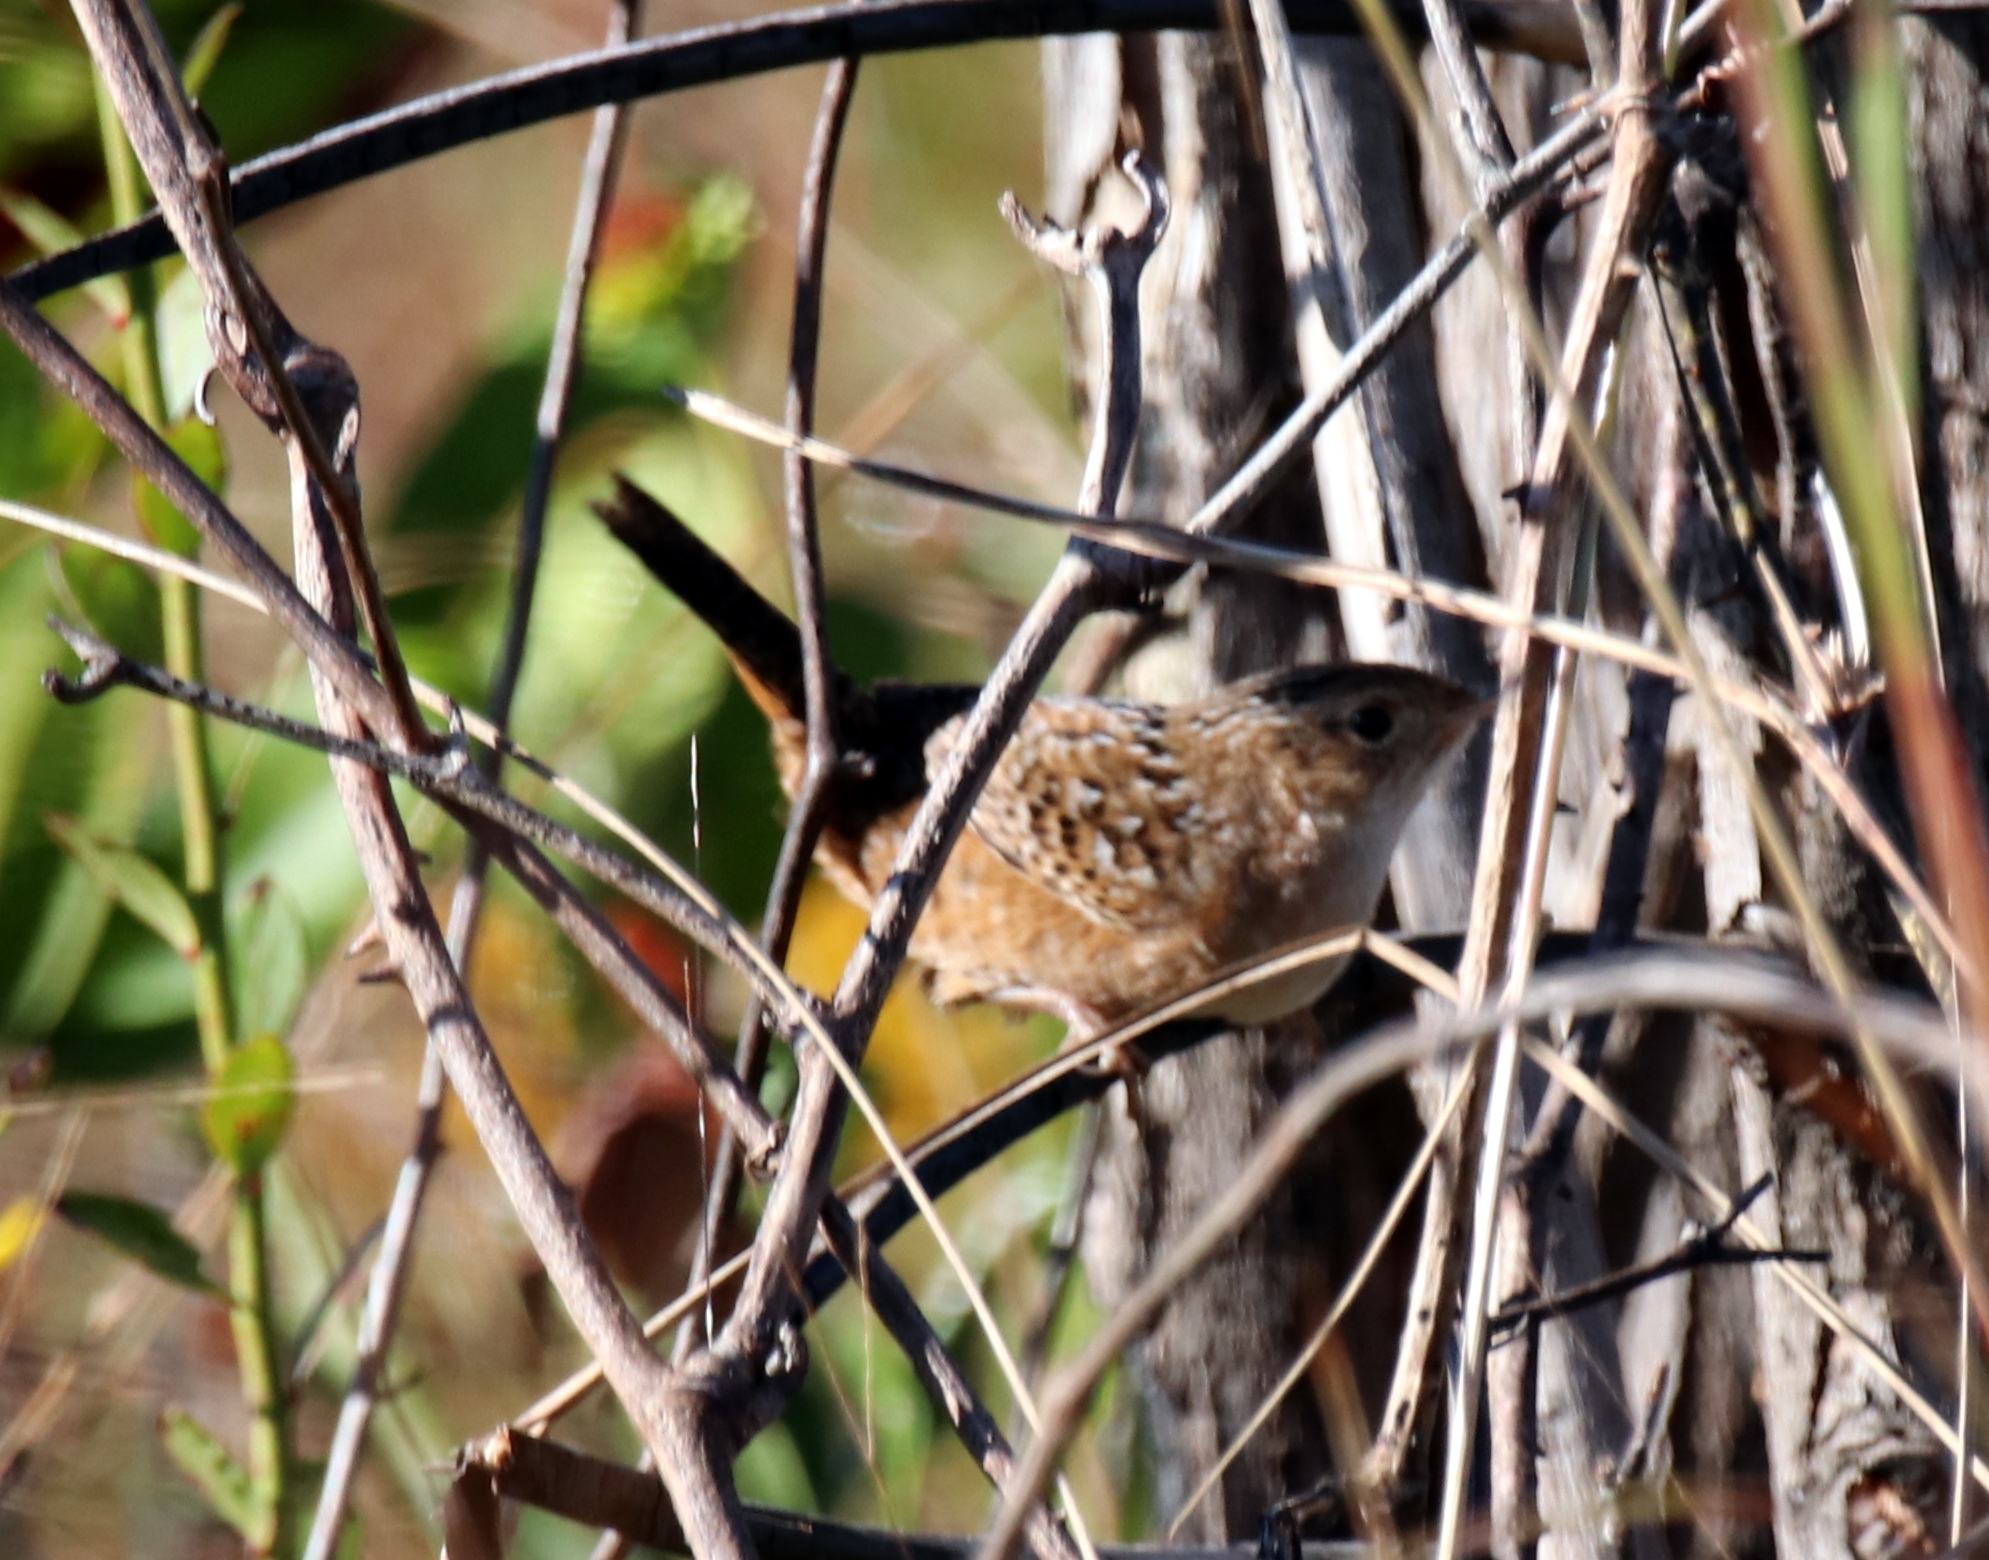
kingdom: Animalia
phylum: Chordata
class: Aves
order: Passeriformes
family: Troglodytidae
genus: Cistothorus
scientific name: Cistothorus platensis
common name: Sedge wren
